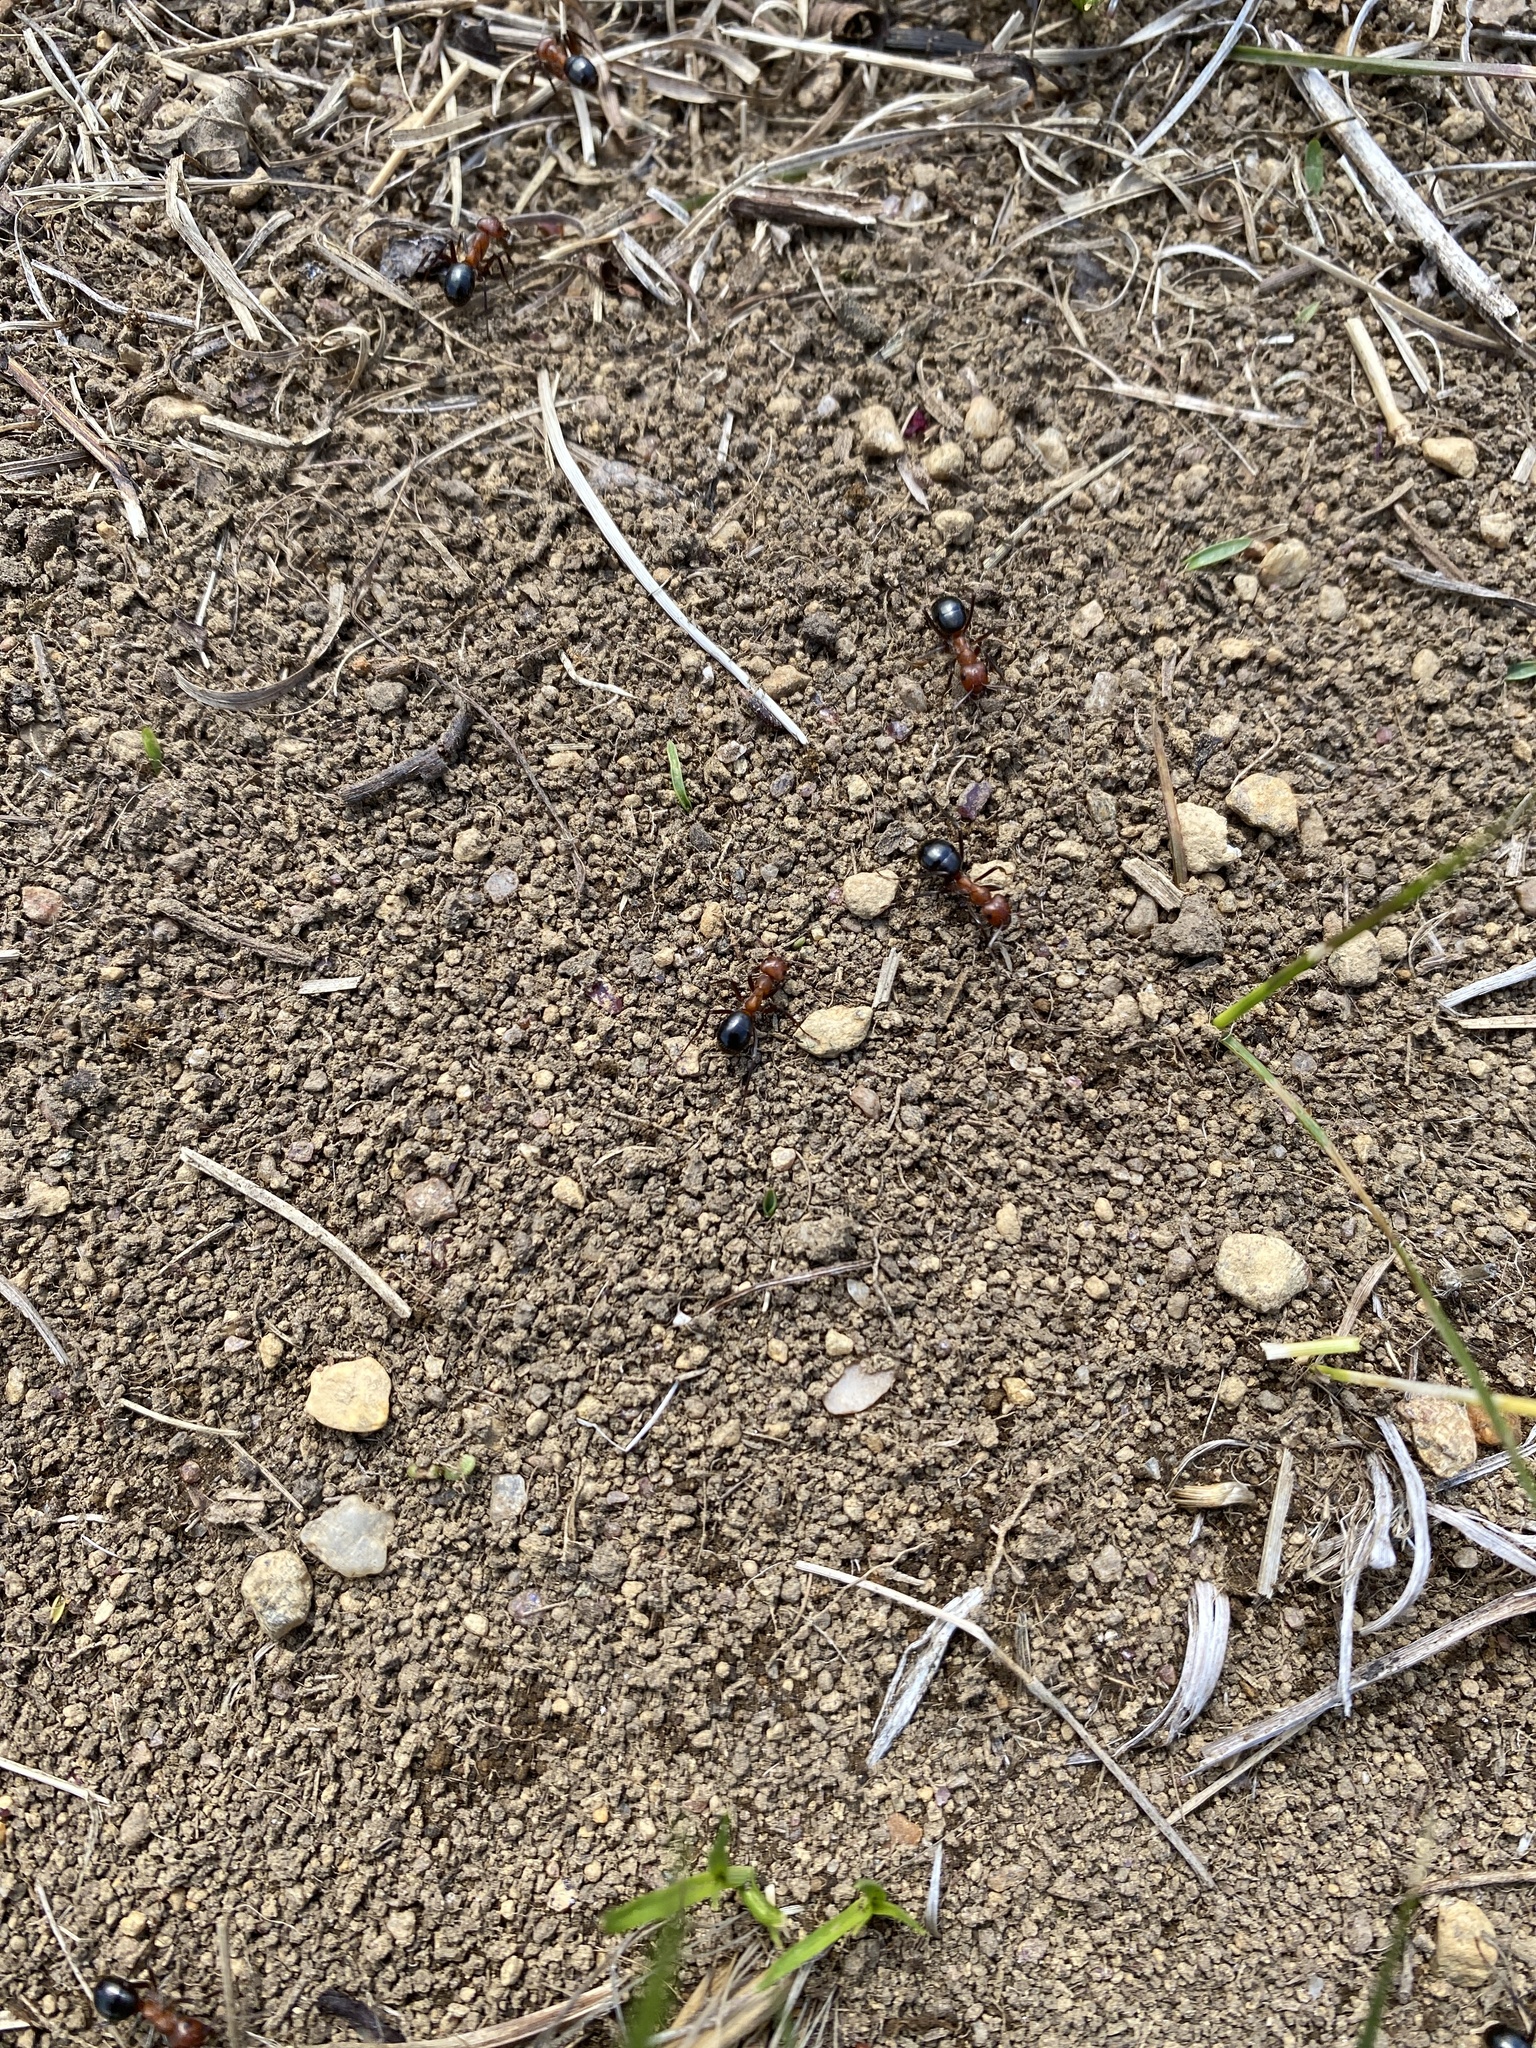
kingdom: Animalia
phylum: Arthropoda
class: Insecta
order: Hymenoptera
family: Formicidae
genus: Formica
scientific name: Formica
